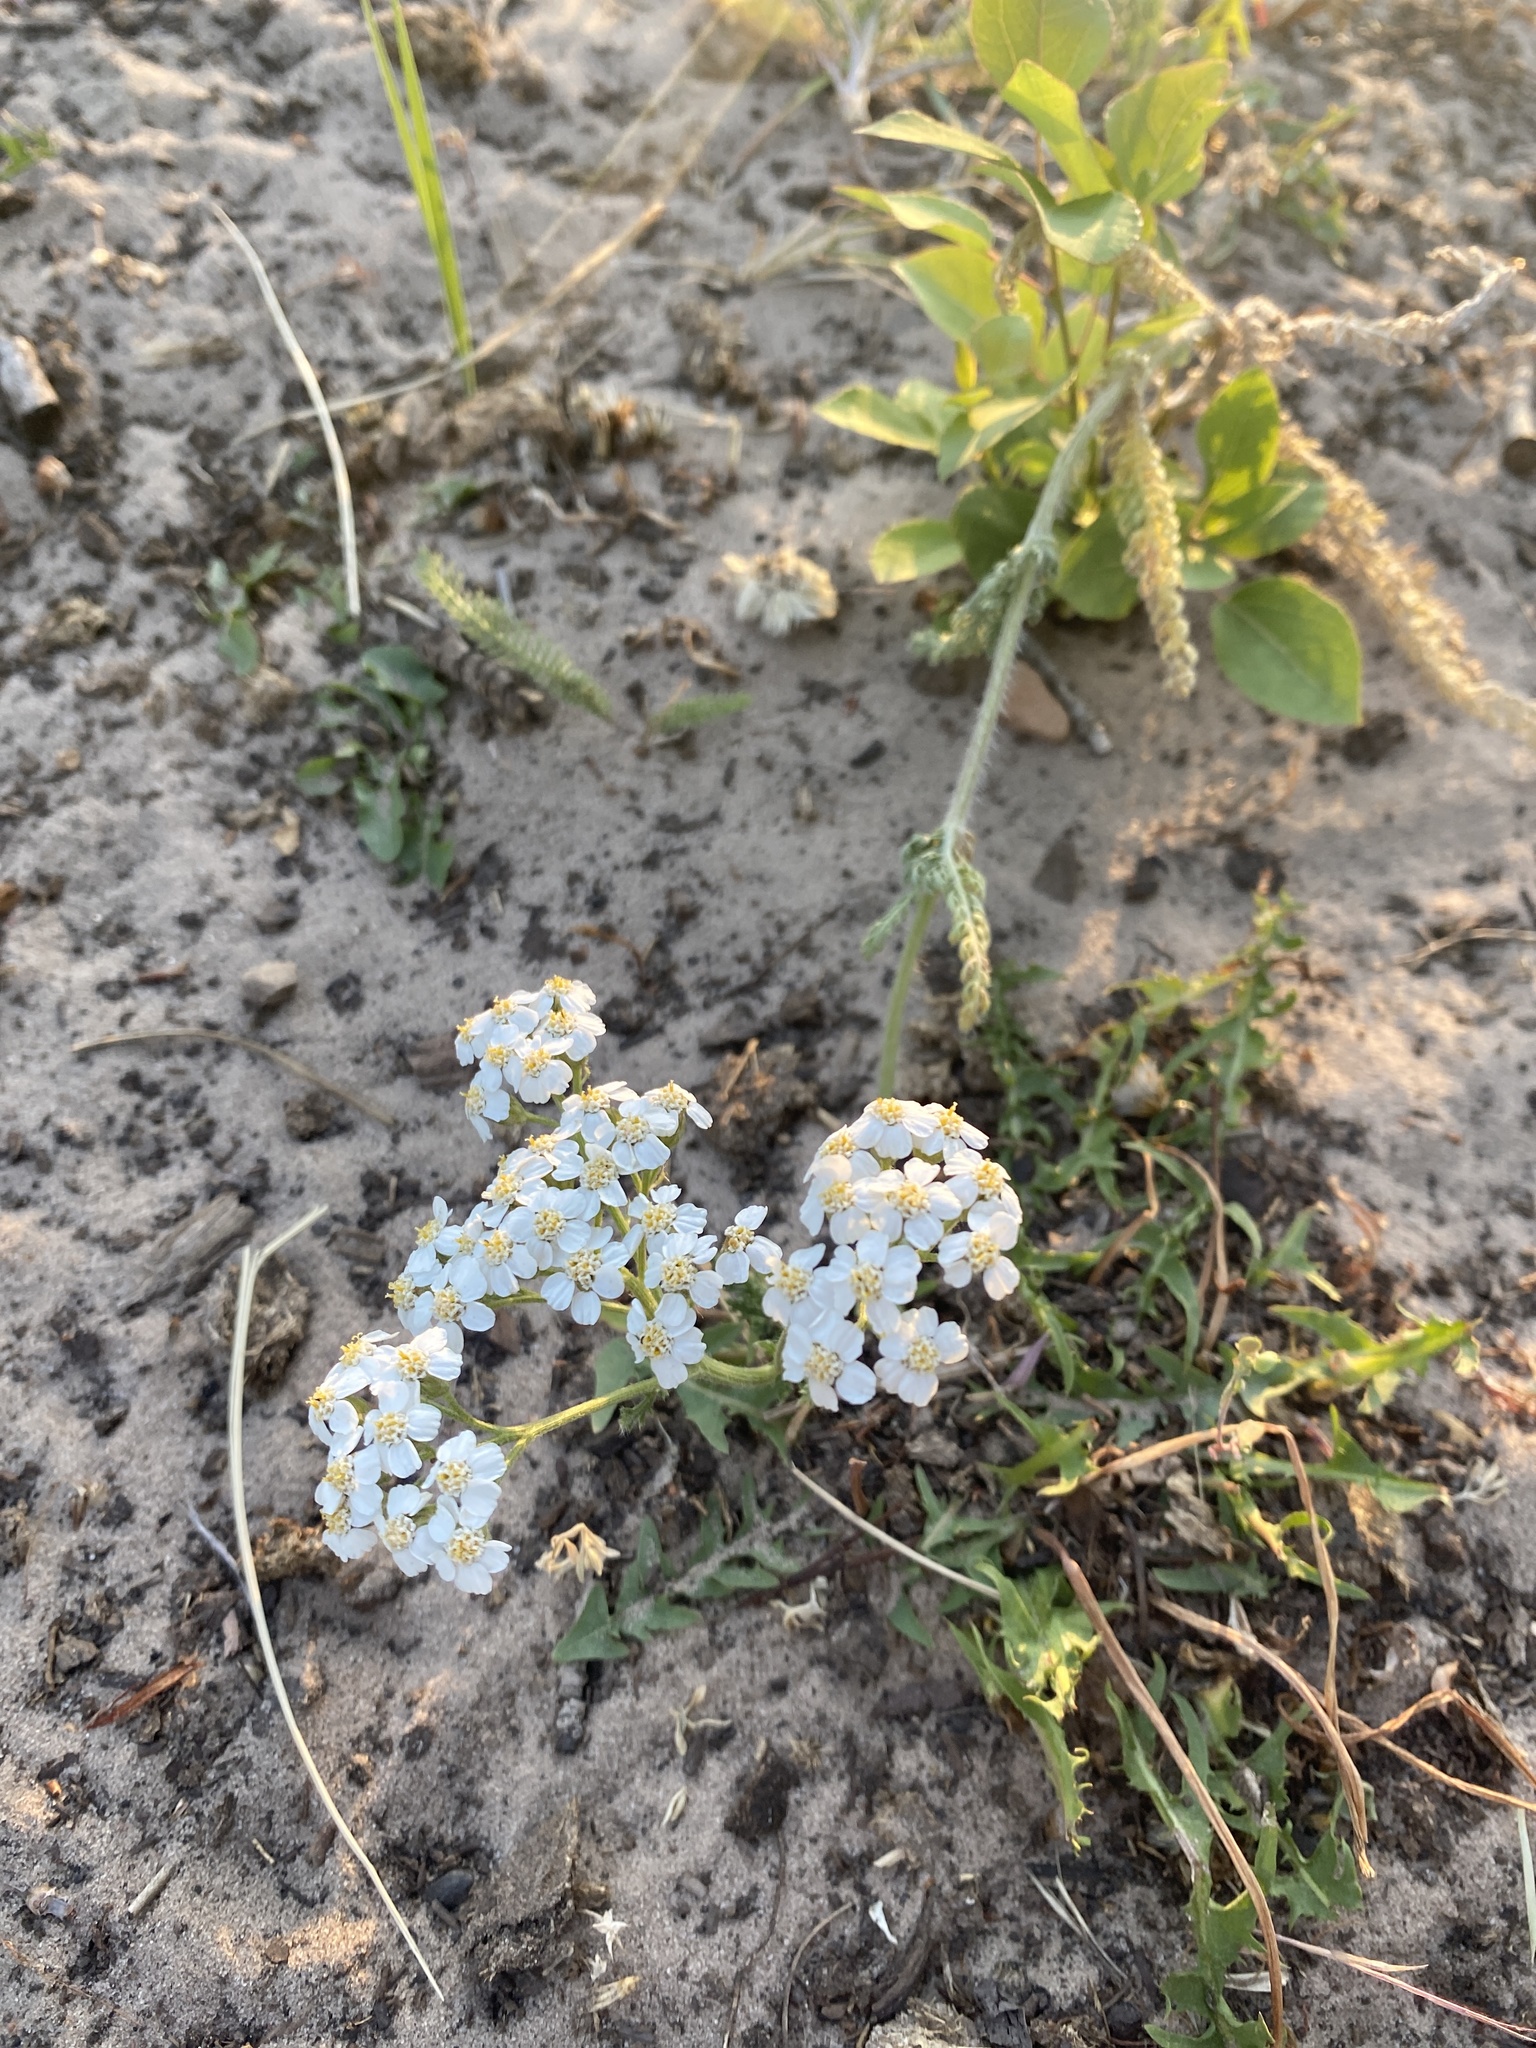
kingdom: Plantae
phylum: Tracheophyta
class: Magnoliopsida
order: Asterales
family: Asteraceae
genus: Achillea
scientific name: Achillea millefolium
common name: Yarrow
